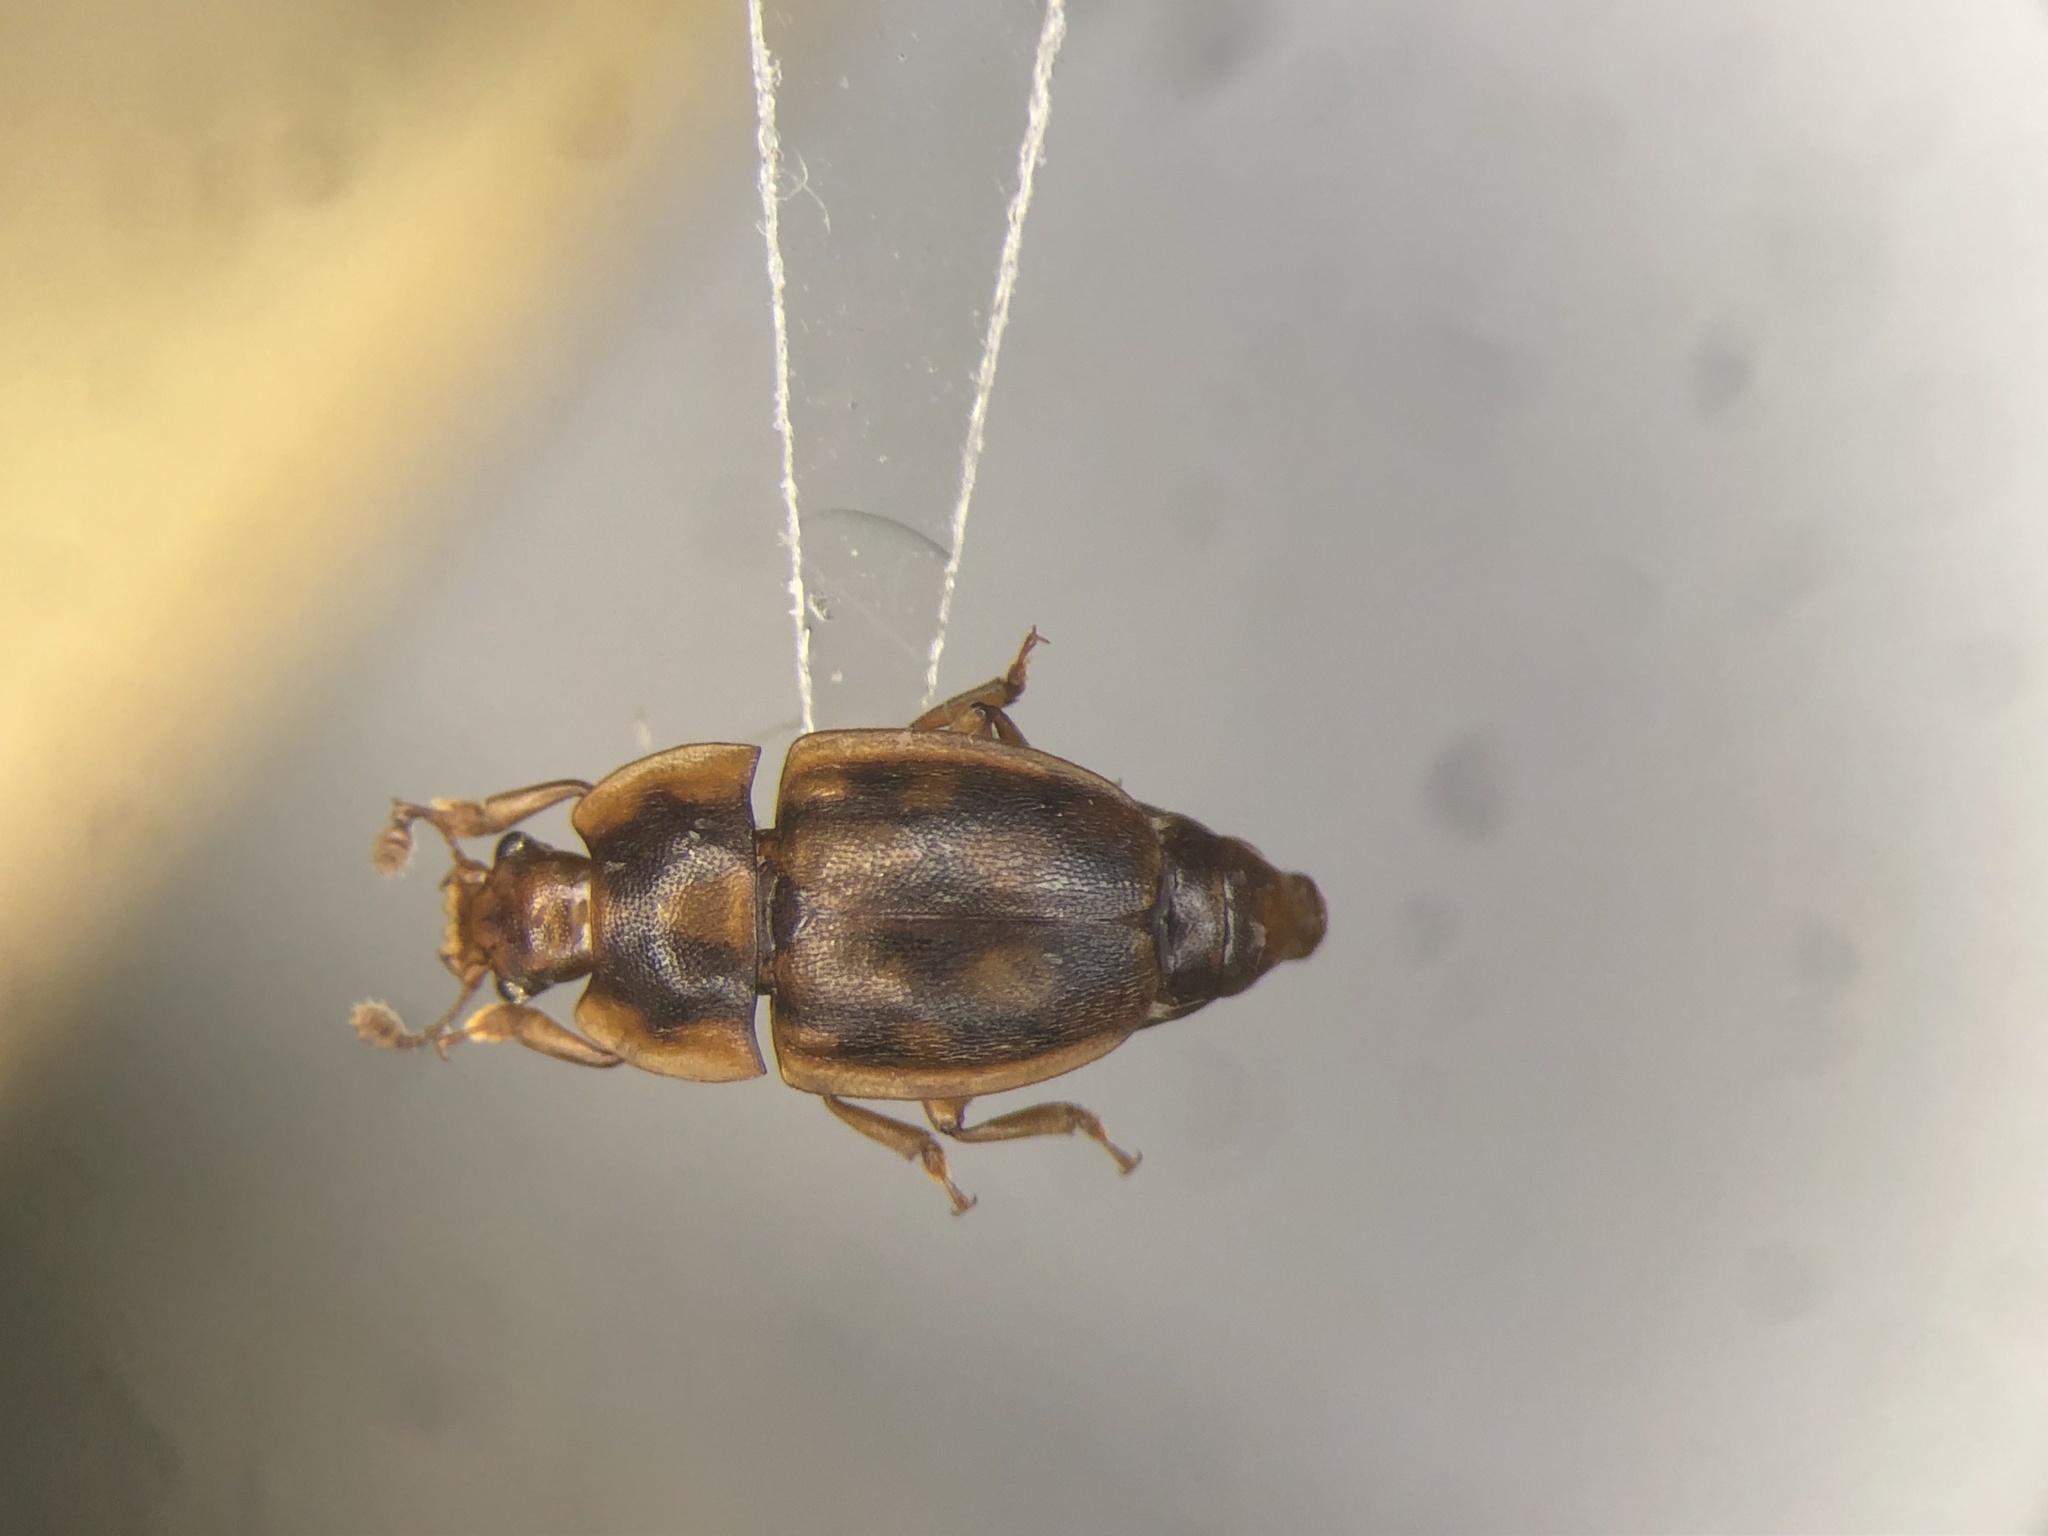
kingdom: Animalia
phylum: Arthropoda
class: Insecta
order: Coleoptera
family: Nitidulidae
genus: Epuraea
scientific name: Epuraea peltoides
